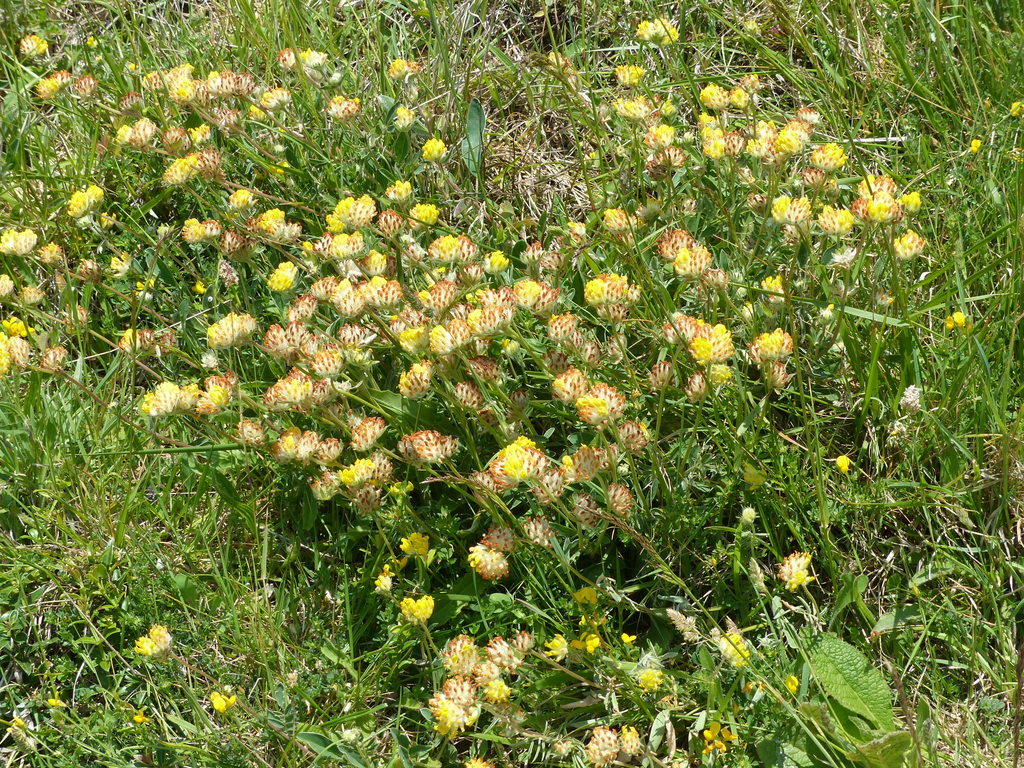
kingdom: Plantae
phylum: Tracheophyta
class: Magnoliopsida
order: Fabales
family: Fabaceae
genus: Anthyllis
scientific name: Anthyllis vulneraria
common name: Kidney vetch
